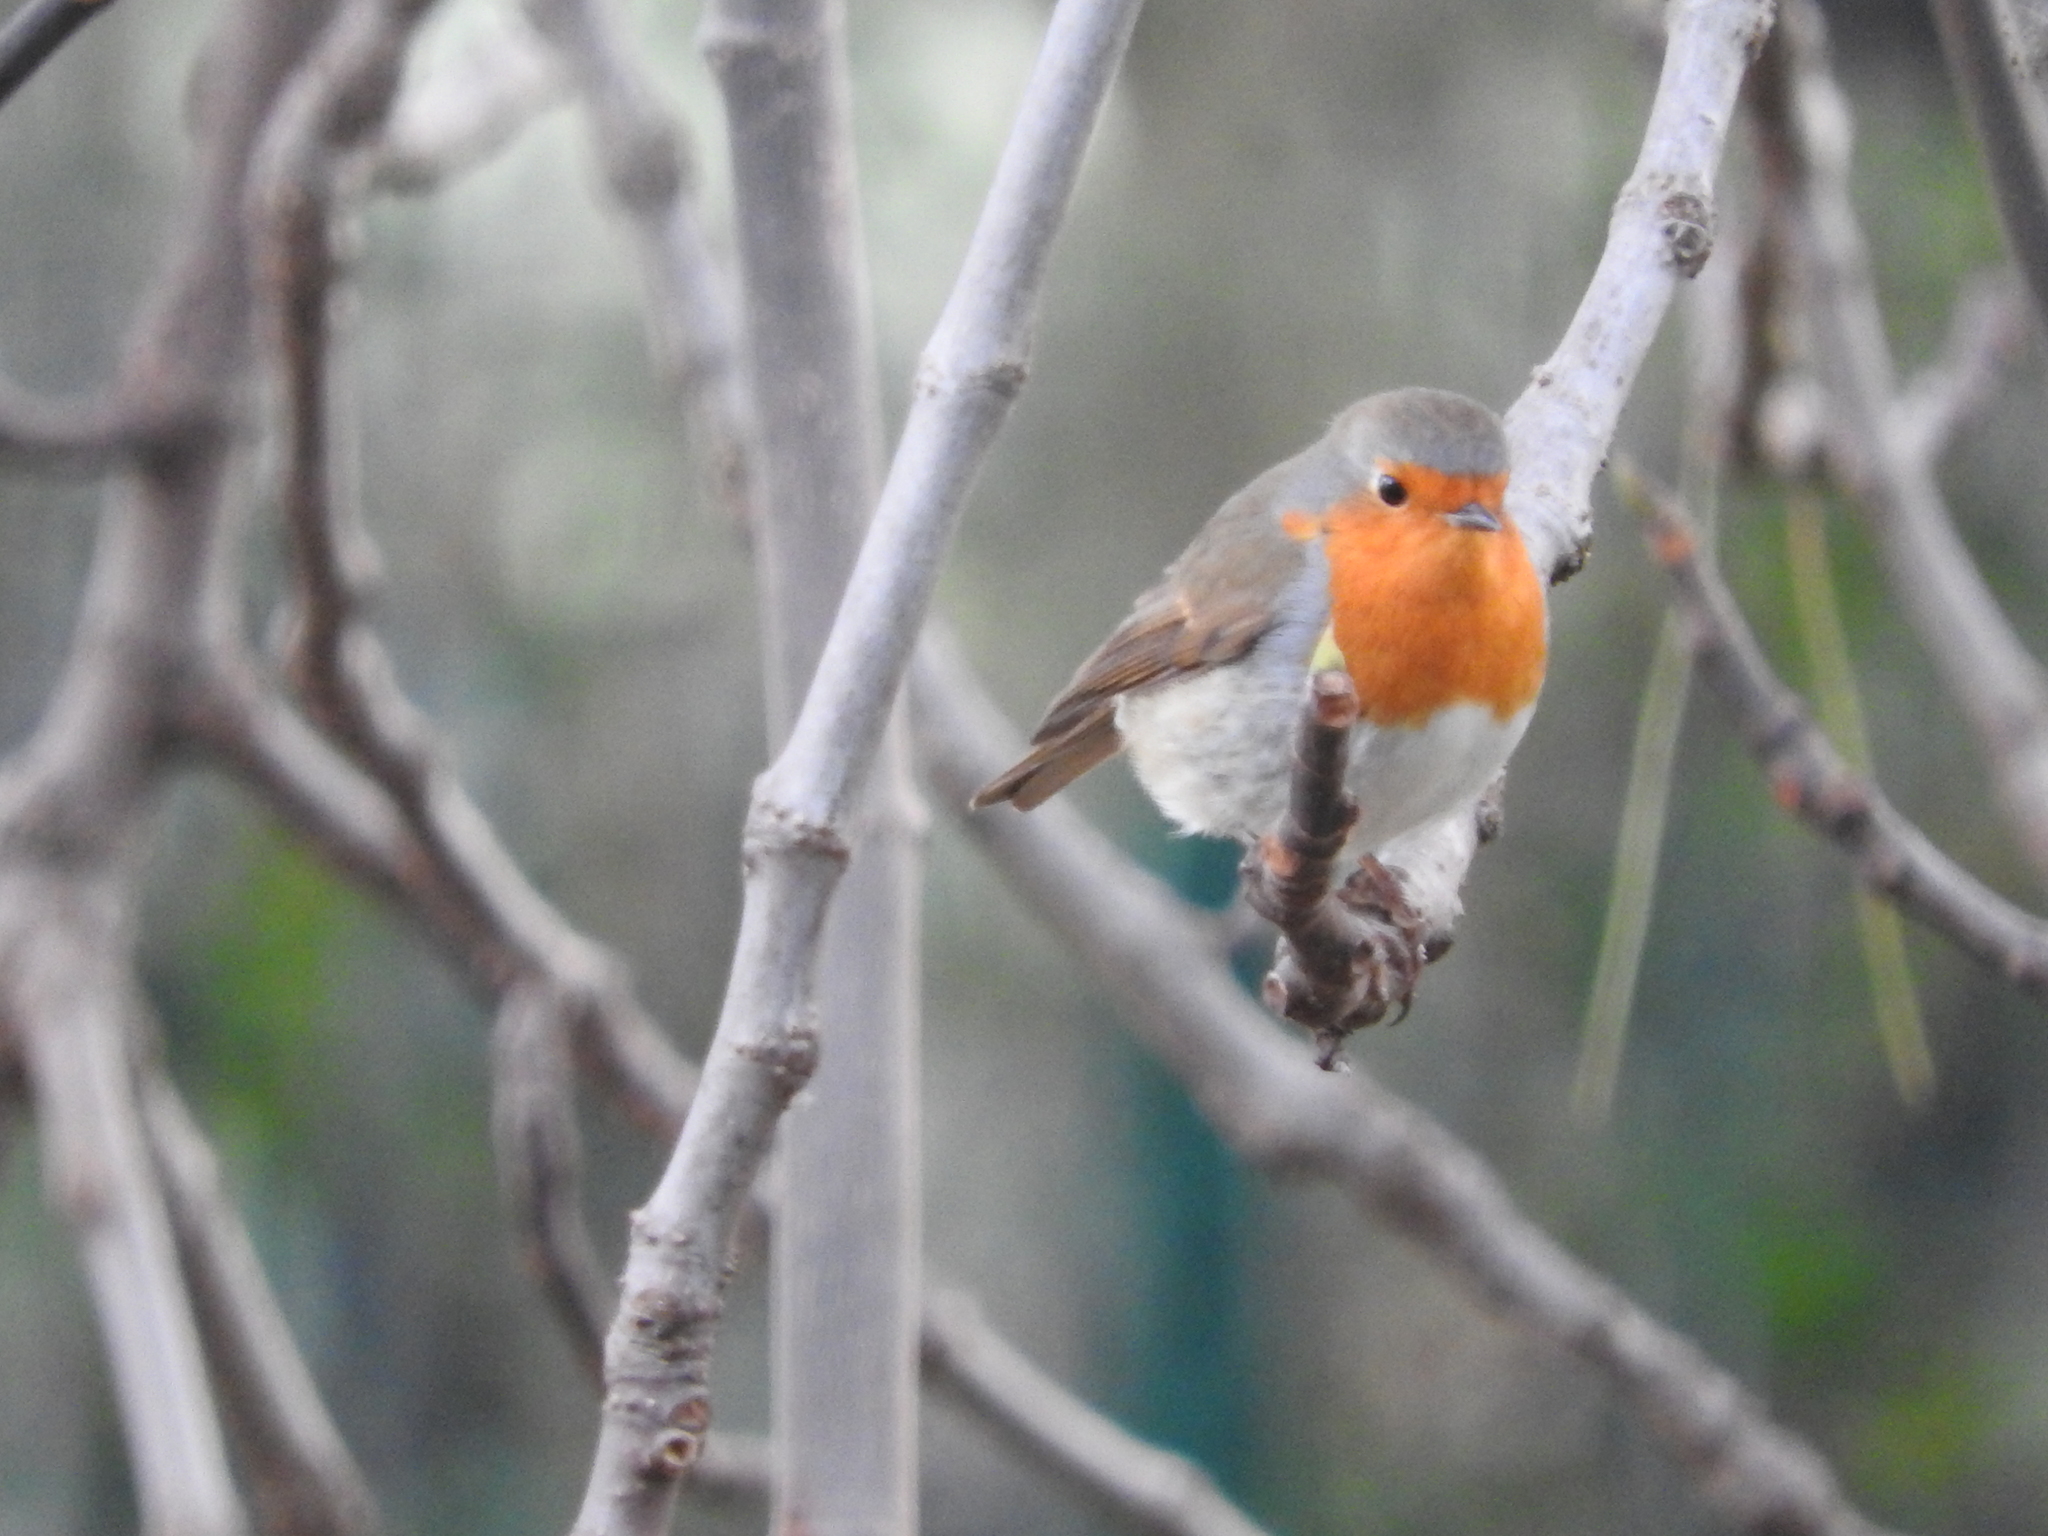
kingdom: Animalia
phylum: Chordata
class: Aves
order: Passeriformes
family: Muscicapidae
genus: Erithacus
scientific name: Erithacus rubecula
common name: European robin
